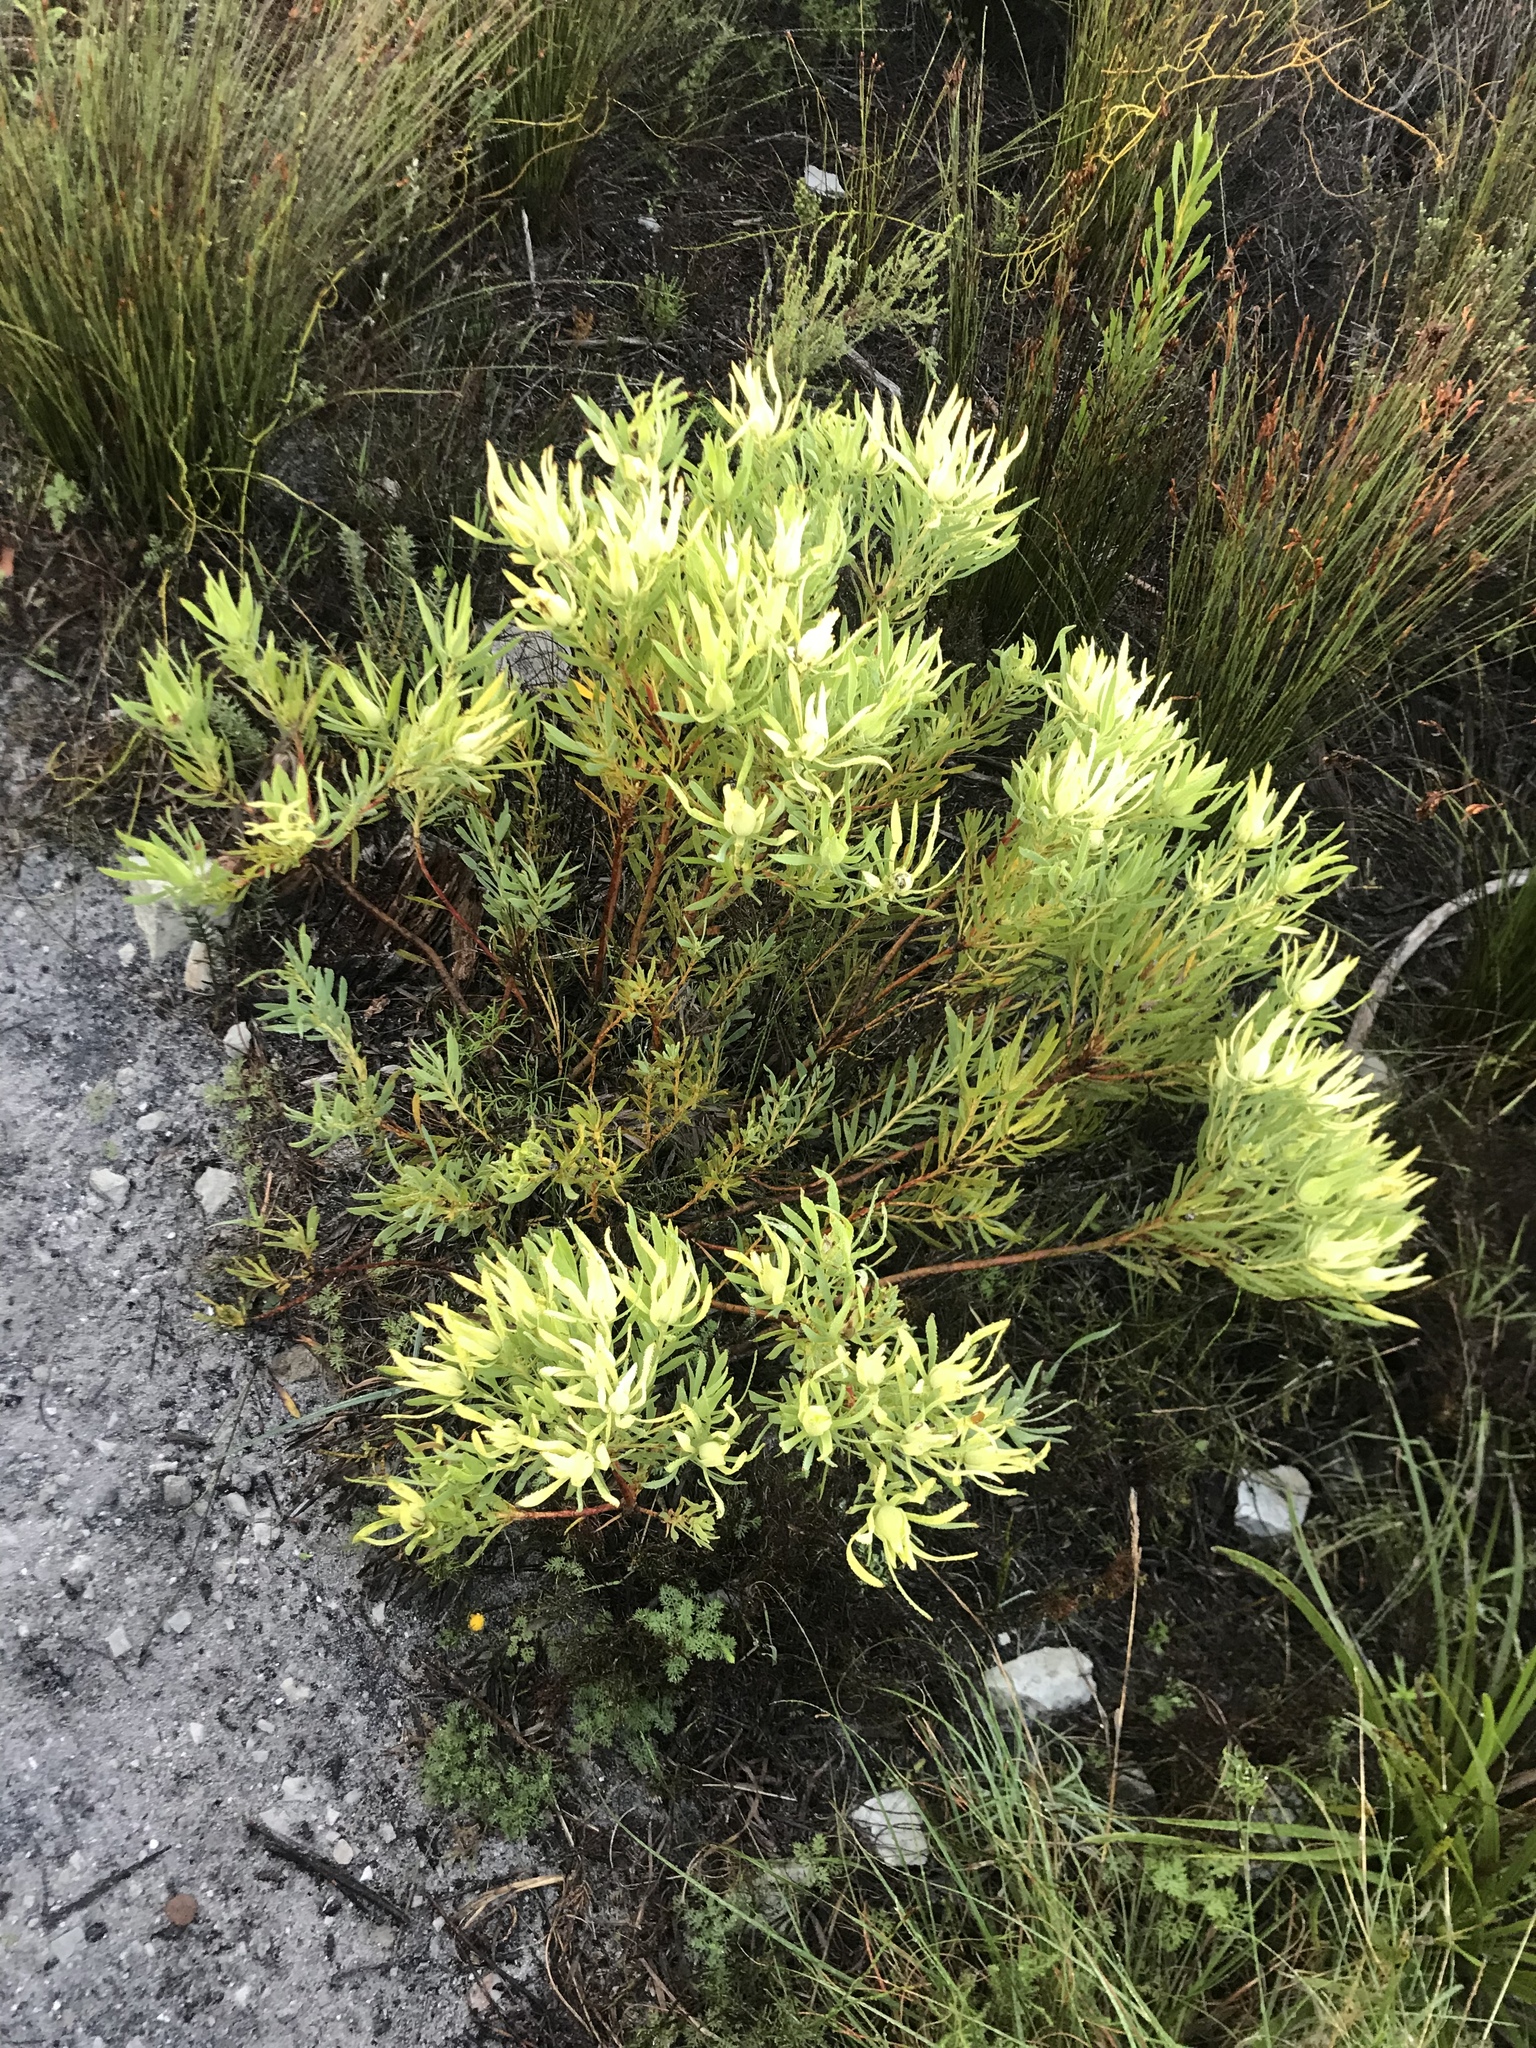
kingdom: Plantae
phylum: Tracheophyta
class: Magnoliopsida
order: Proteales
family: Proteaceae
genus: Leucadendron
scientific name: Leucadendron salignum
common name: Common sunshine conebush
